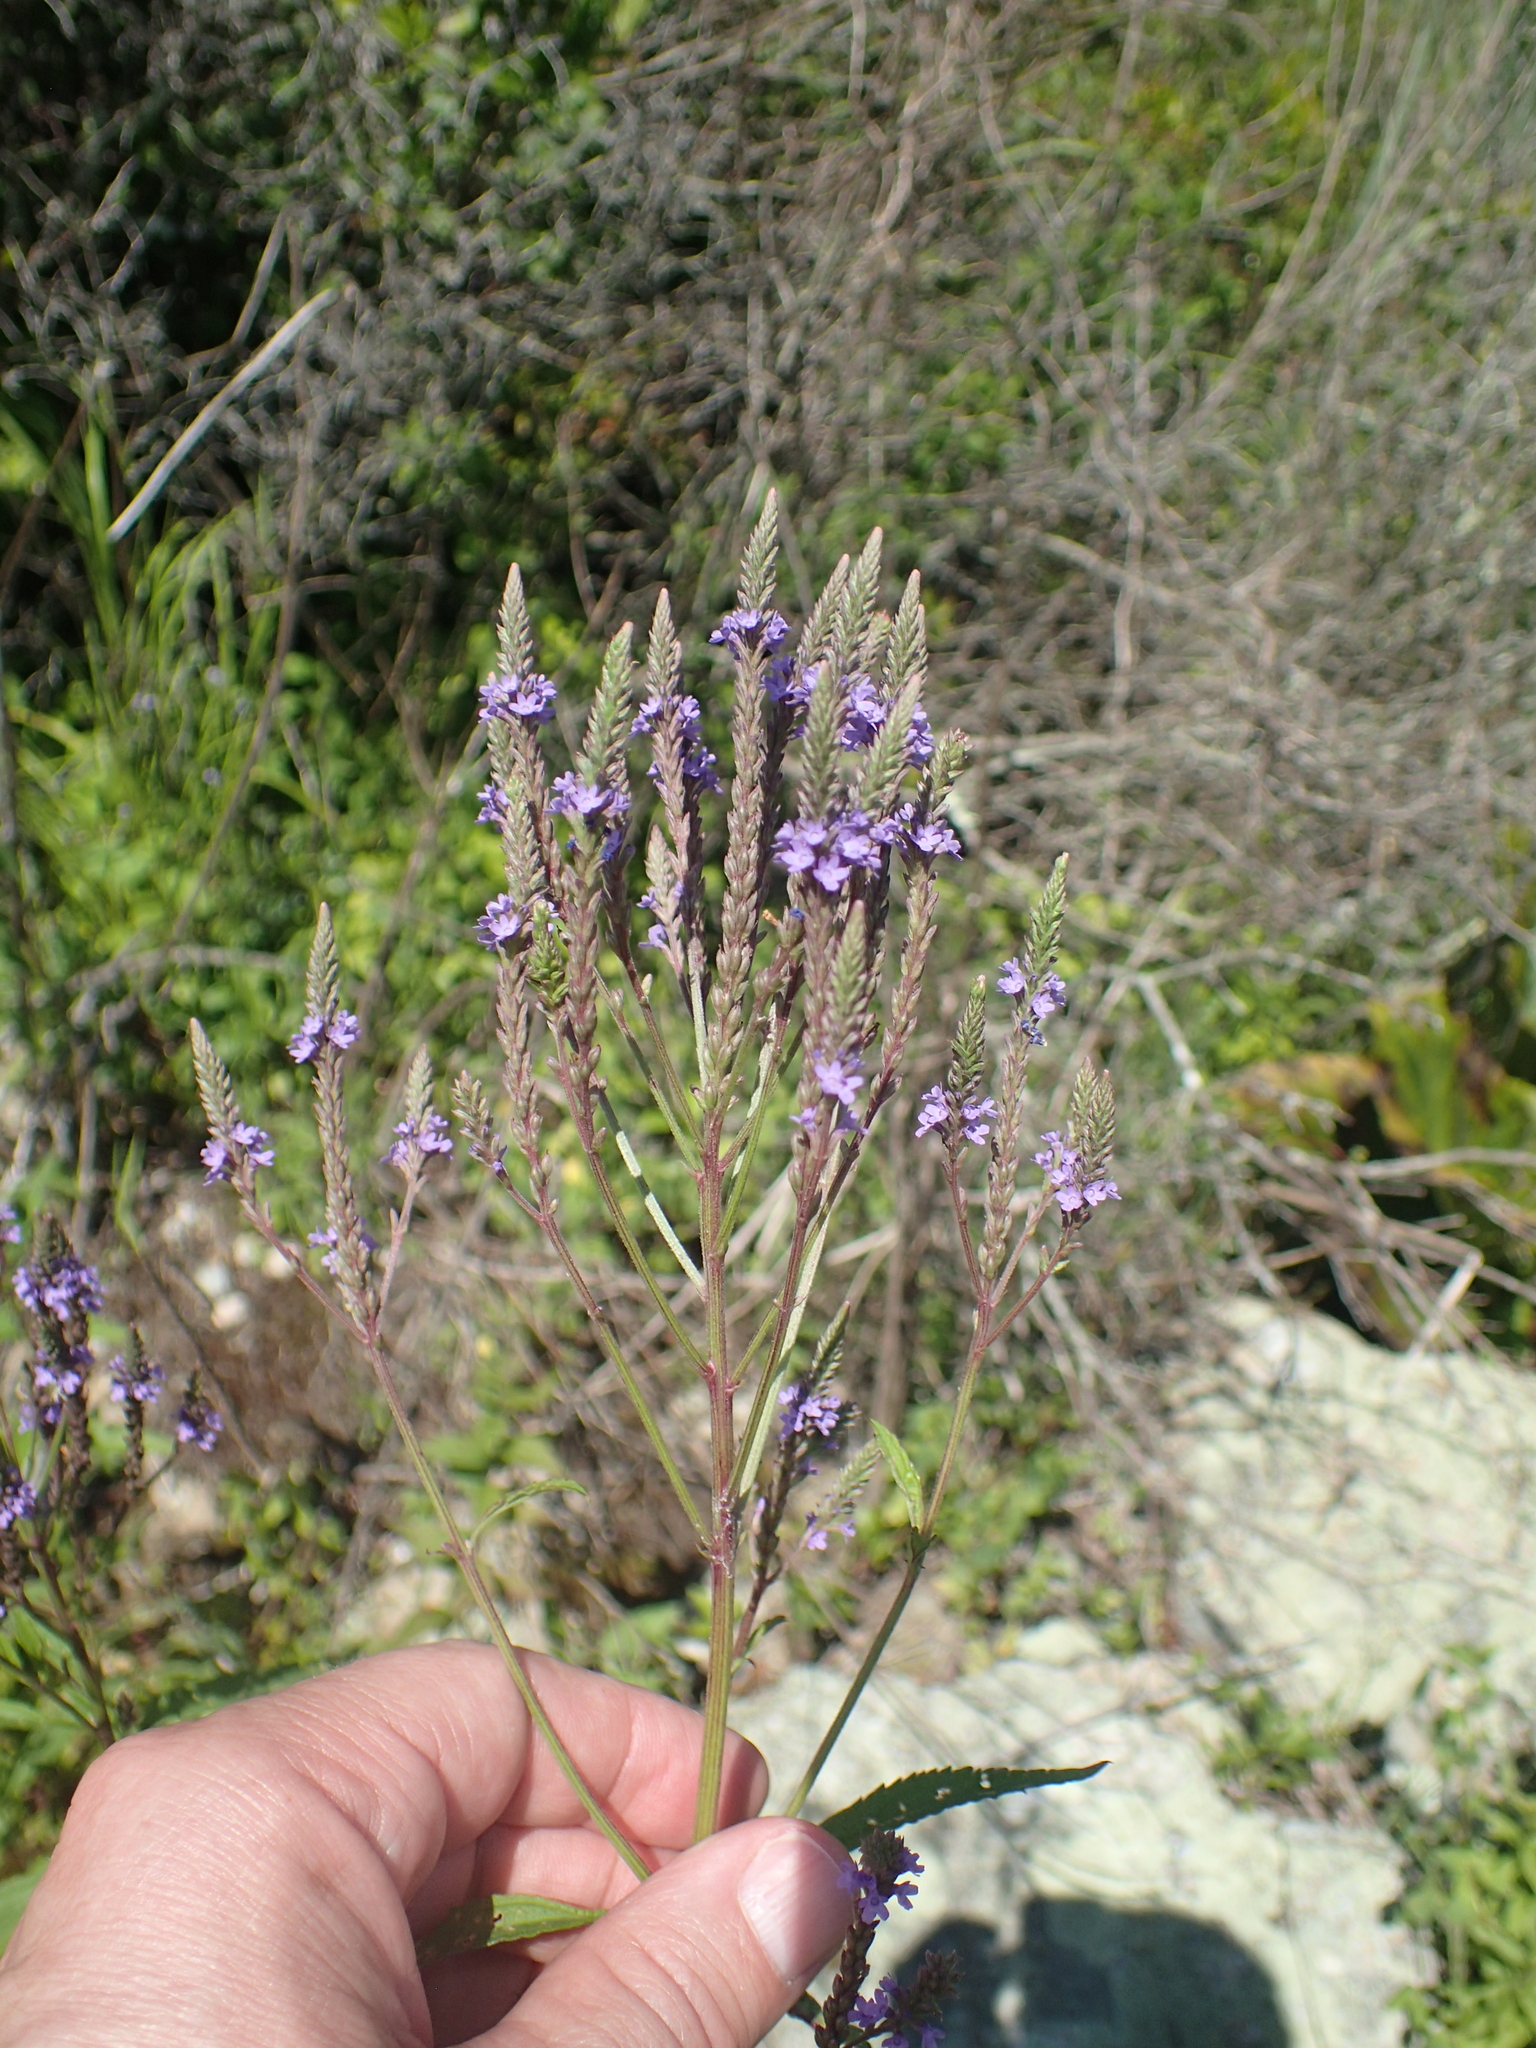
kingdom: Plantae
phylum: Tracheophyta
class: Magnoliopsida
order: Lamiales
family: Verbenaceae
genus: Verbena
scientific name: Verbena hastata
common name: American blue vervain
